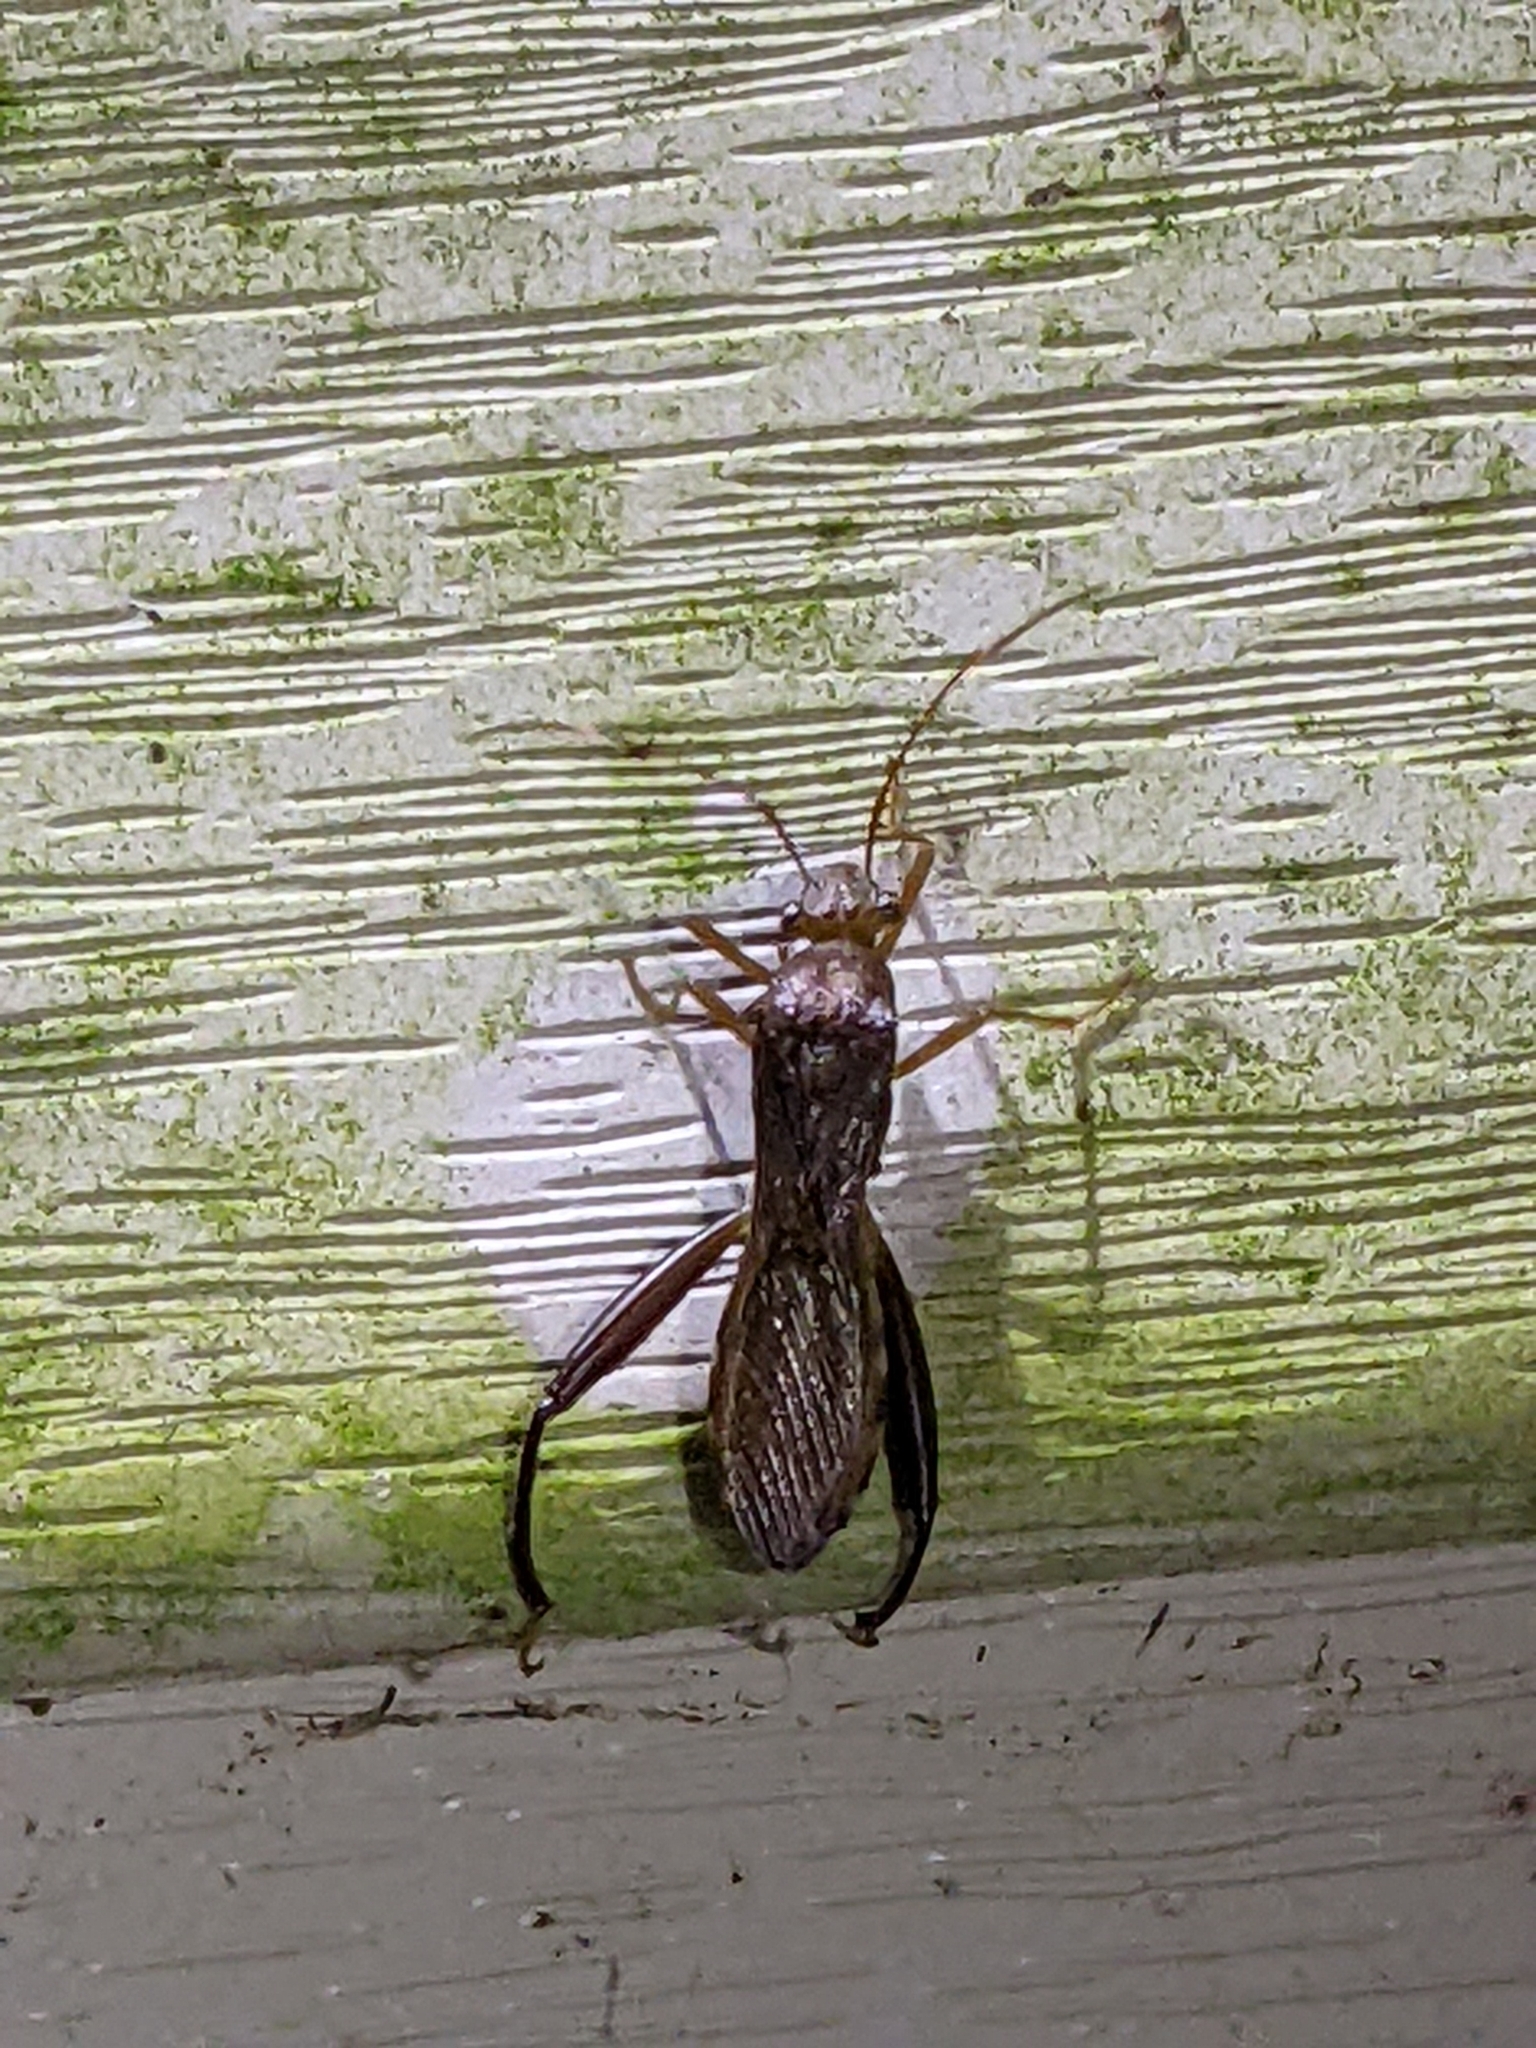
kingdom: Animalia
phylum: Arthropoda
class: Insecta
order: Hemiptera
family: Alydidae
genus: Hyalymenus
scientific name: Hyalymenus tarsatus
